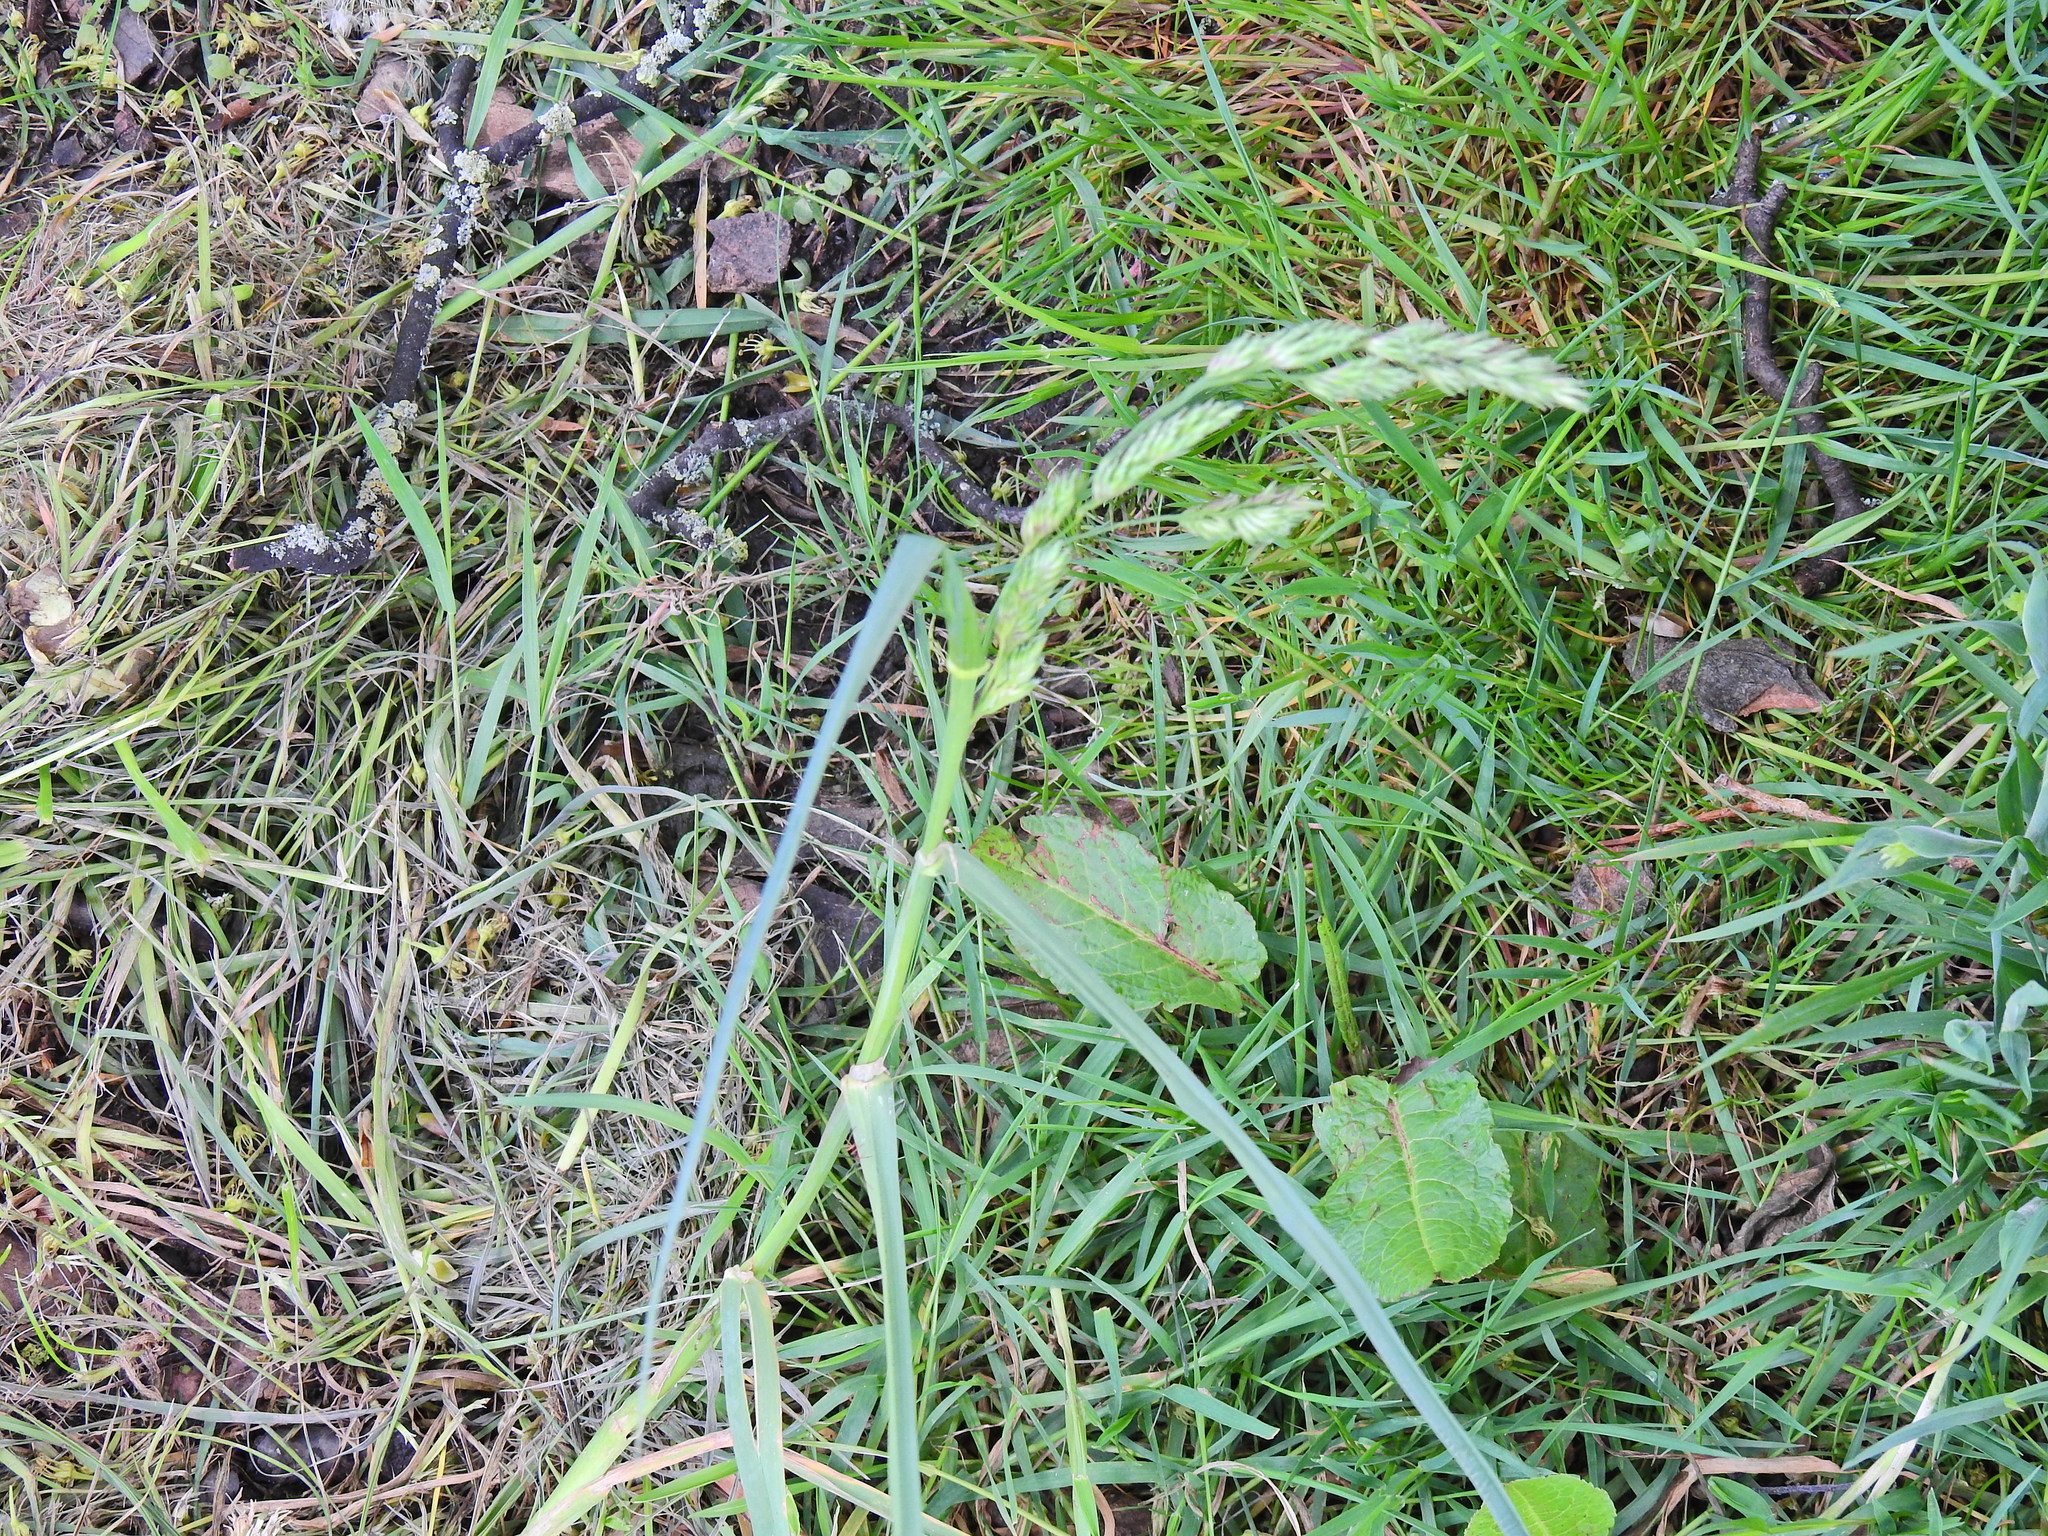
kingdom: Plantae
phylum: Tracheophyta
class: Liliopsida
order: Poales
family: Poaceae
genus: Dactylis
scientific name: Dactylis glomerata
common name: Orchardgrass
